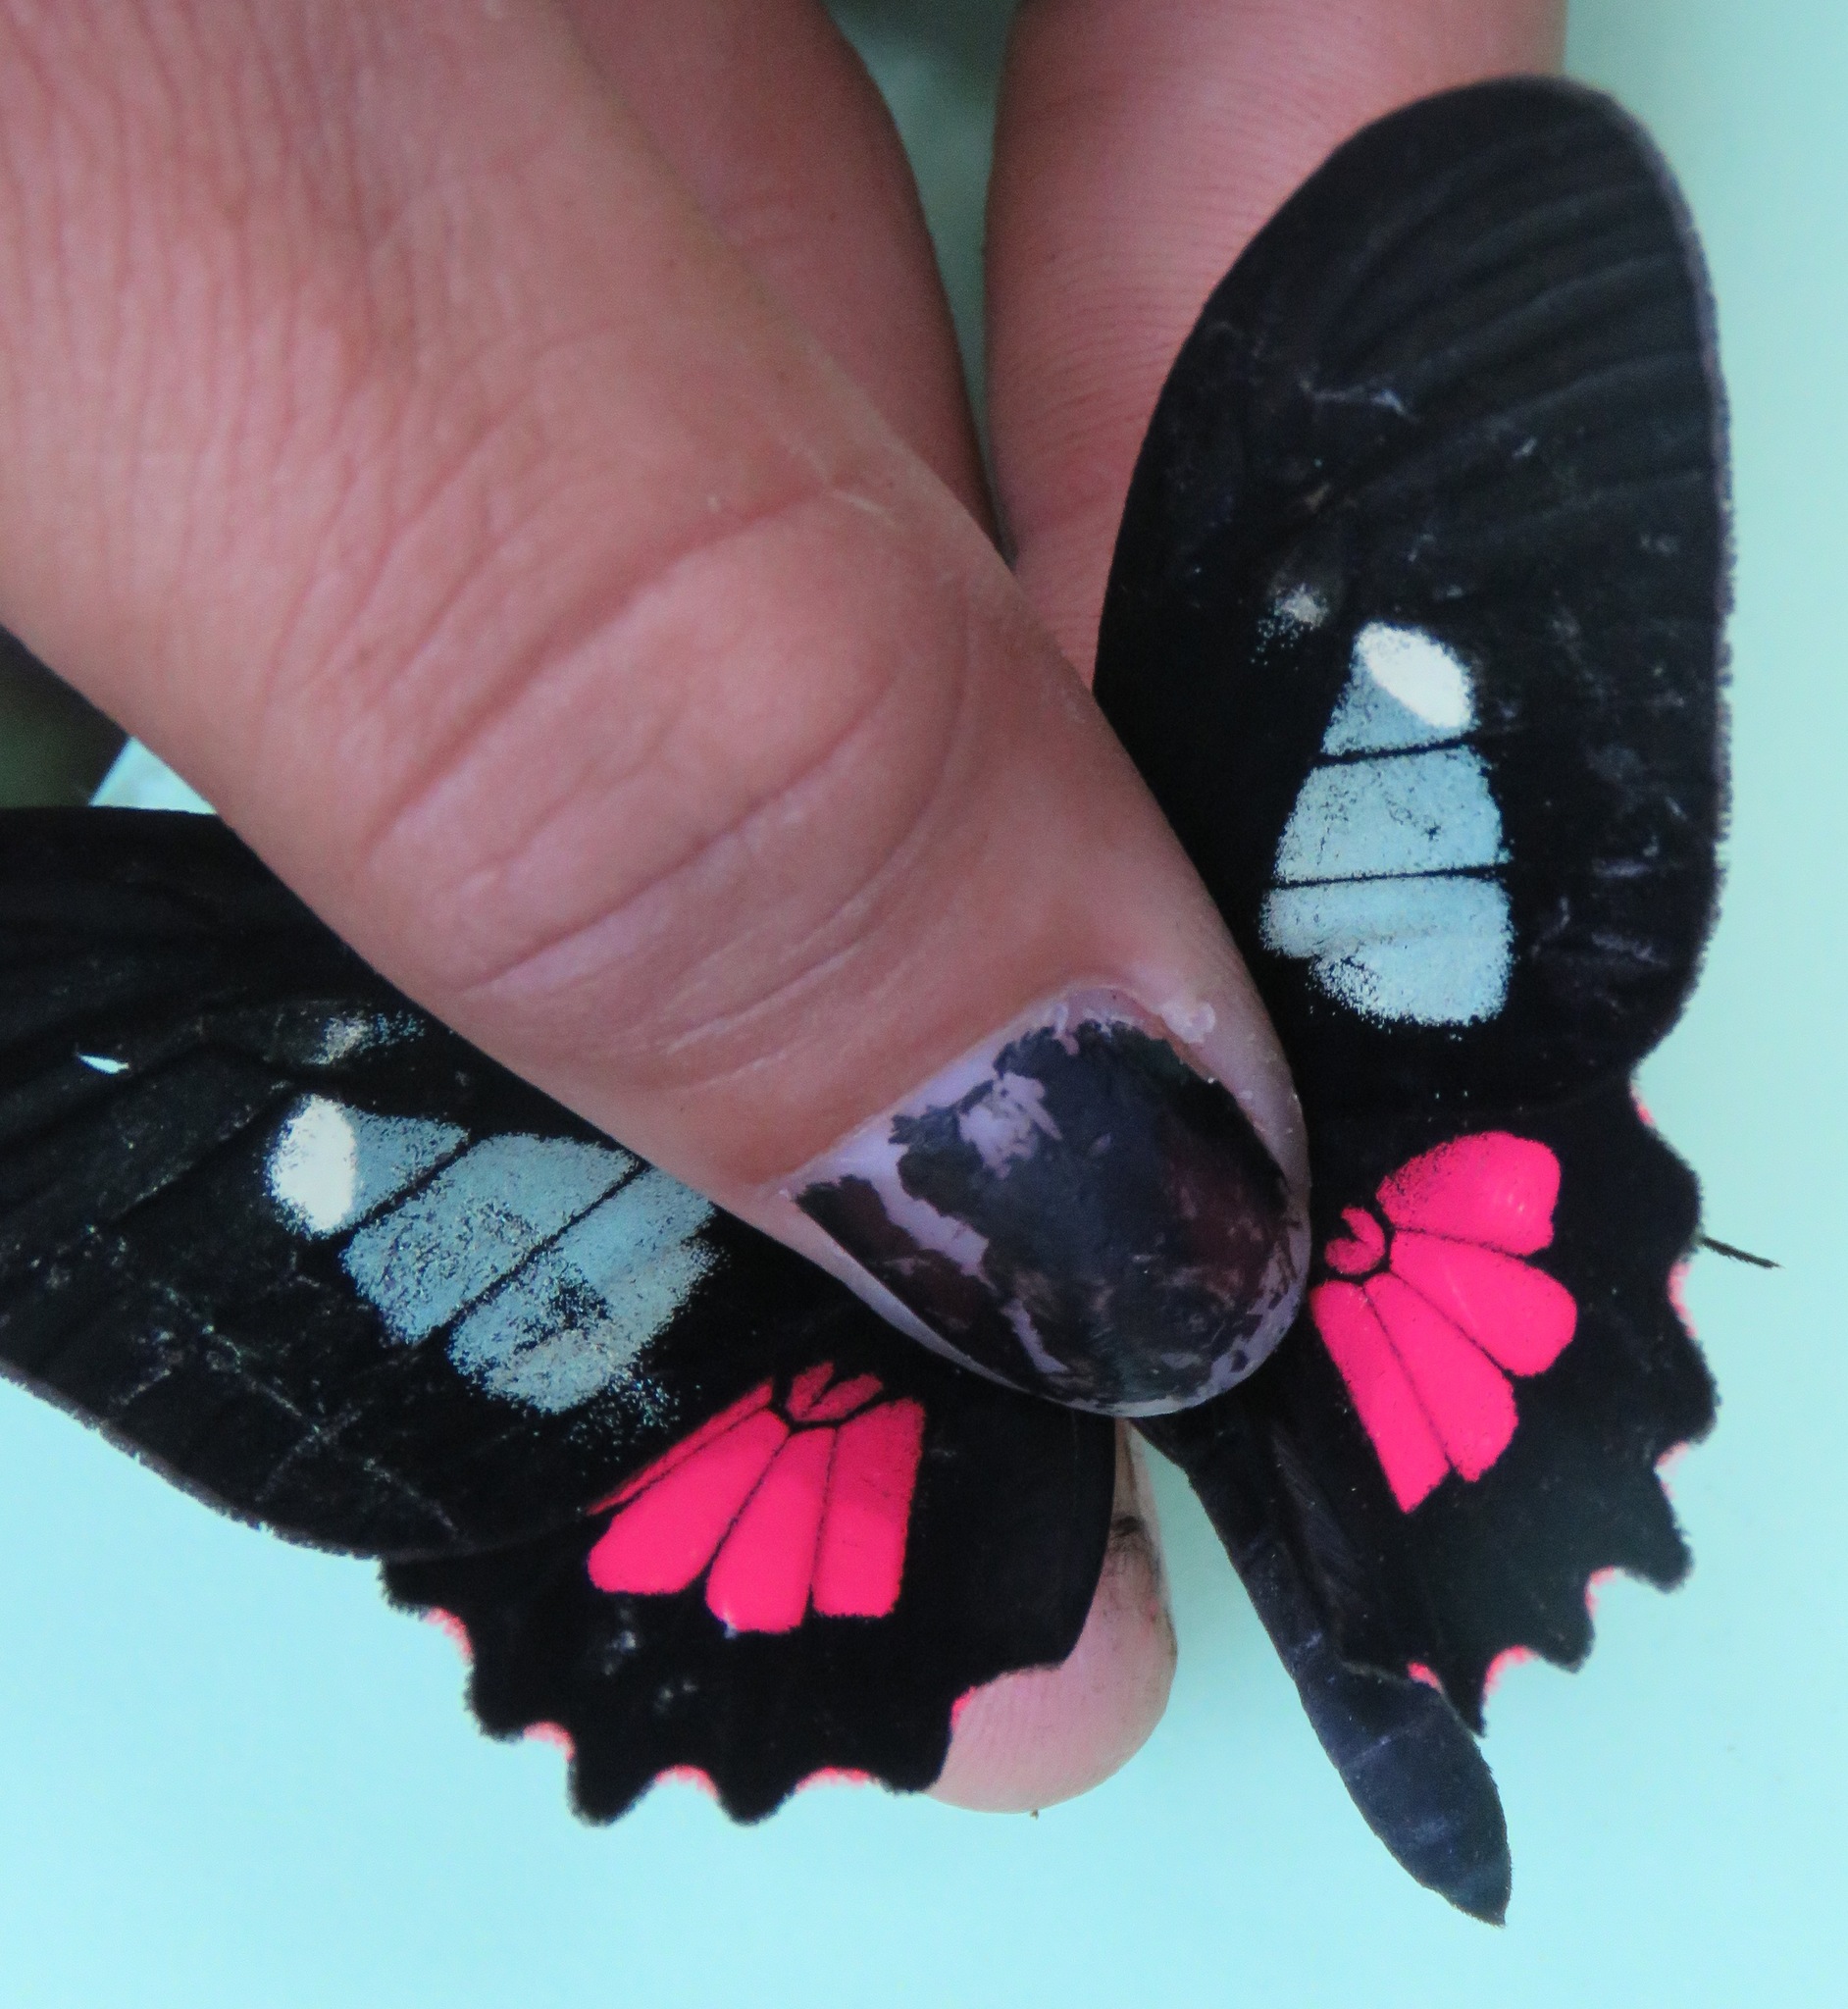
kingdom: Animalia
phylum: Arthropoda
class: Insecta
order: Lepidoptera
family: Papilionidae
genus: Parides
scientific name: Parides eurimedes
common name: True cattleheart
